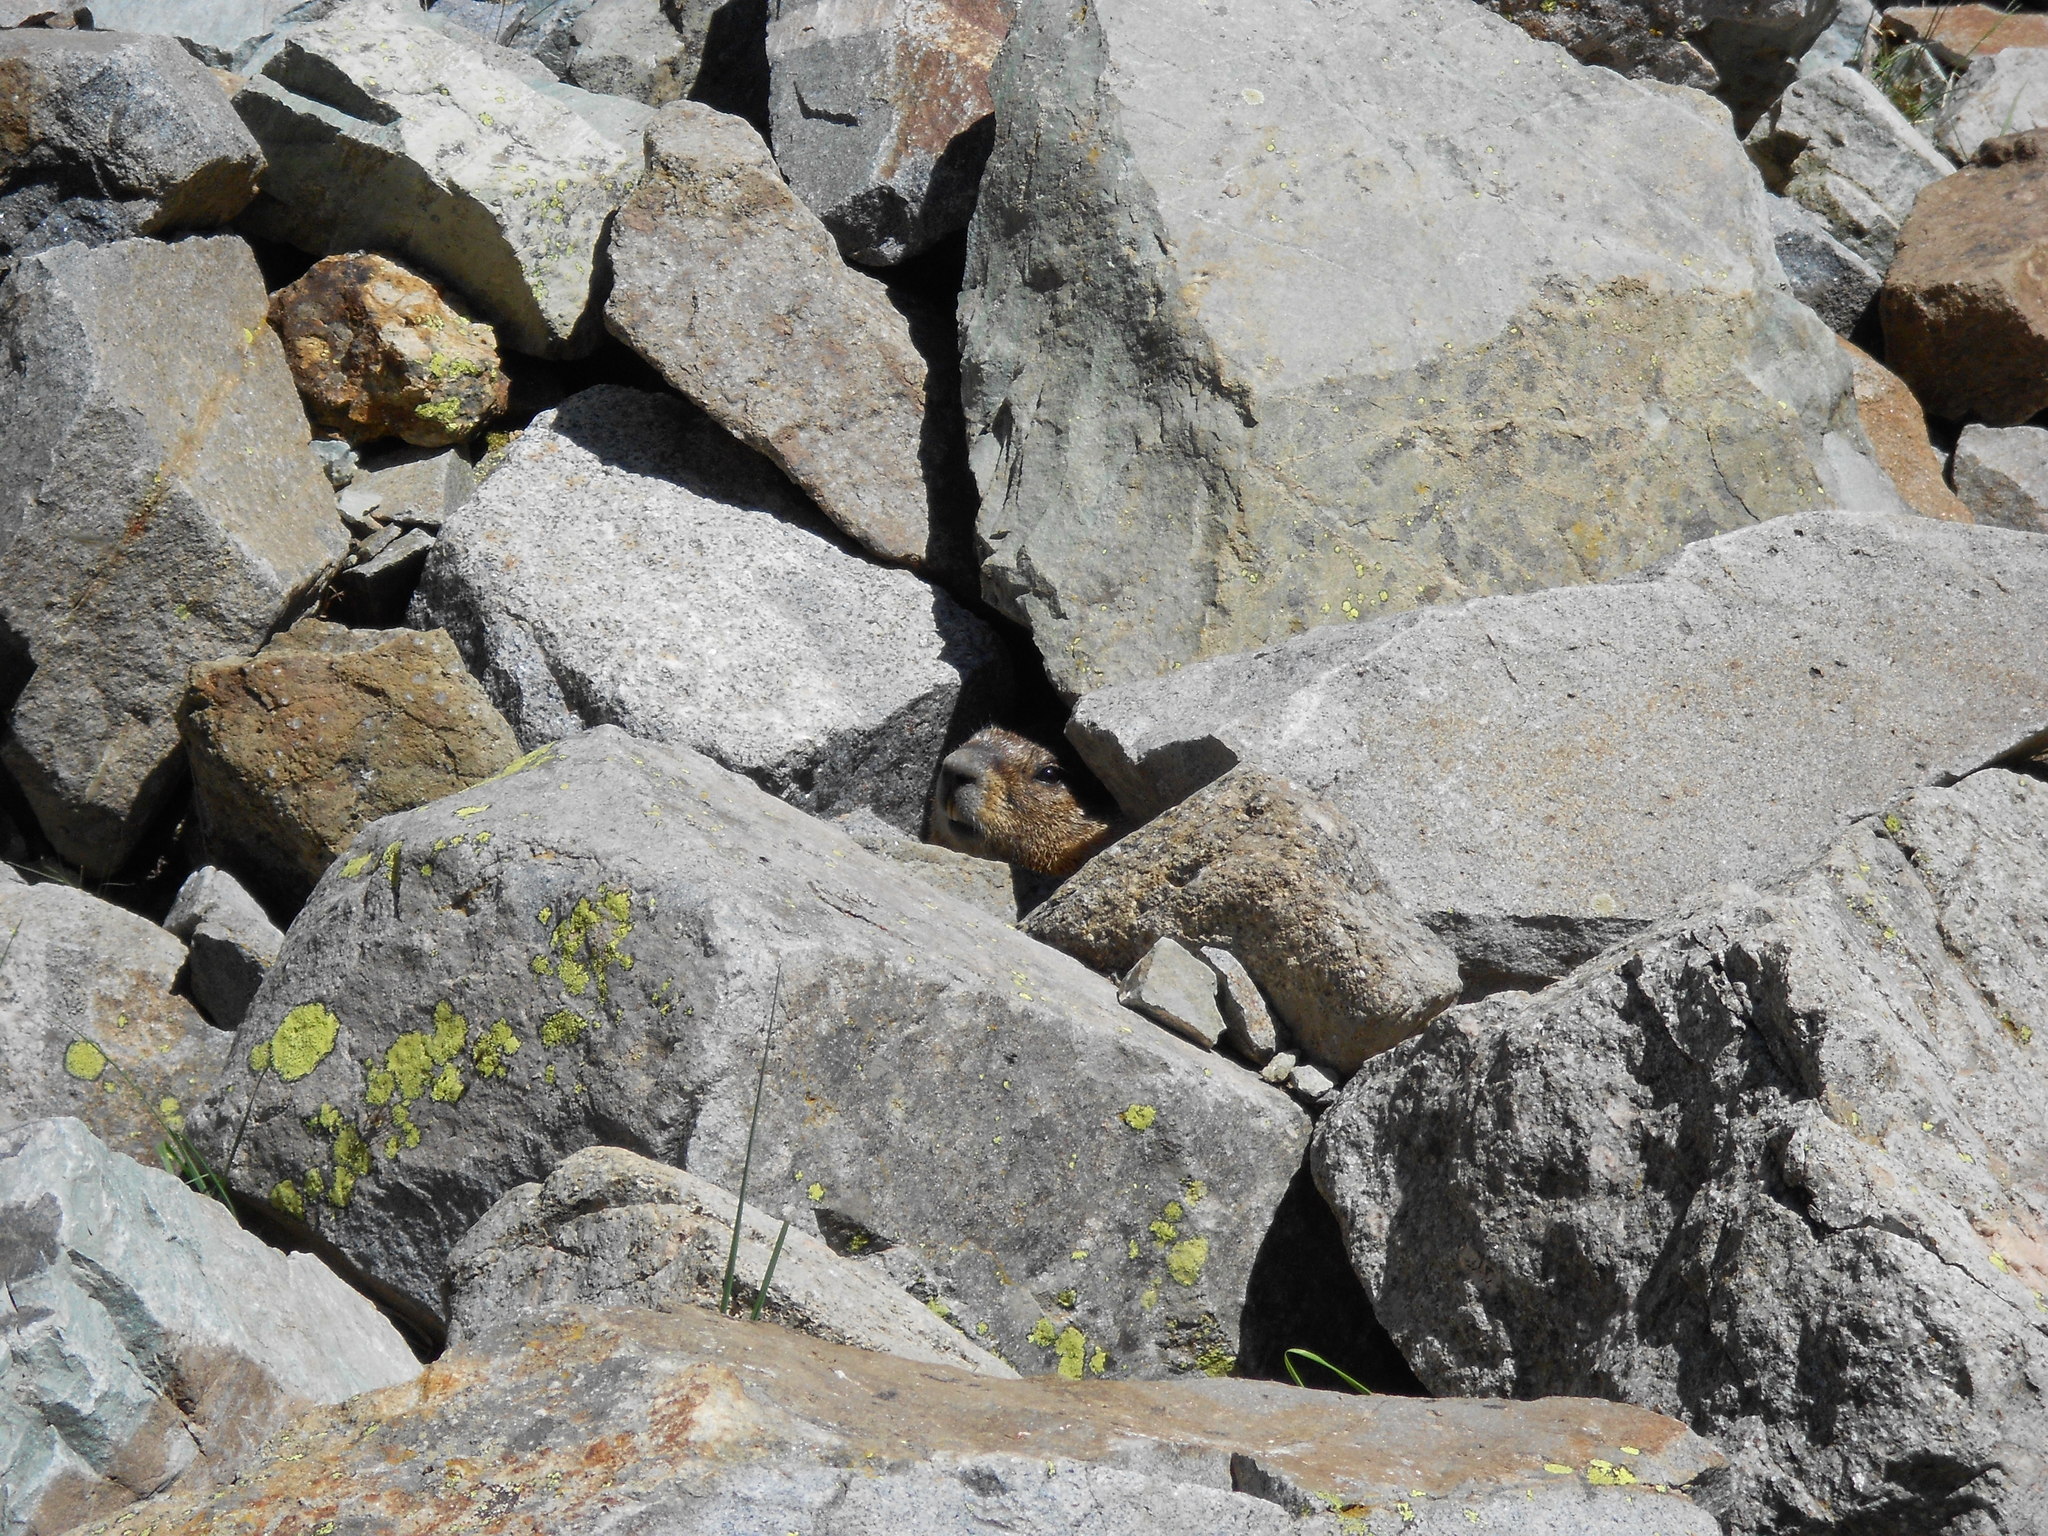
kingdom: Animalia
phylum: Chordata
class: Mammalia
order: Rodentia
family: Sciuridae
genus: Marmota
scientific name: Marmota flaviventris
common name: Yellow-bellied marmot
